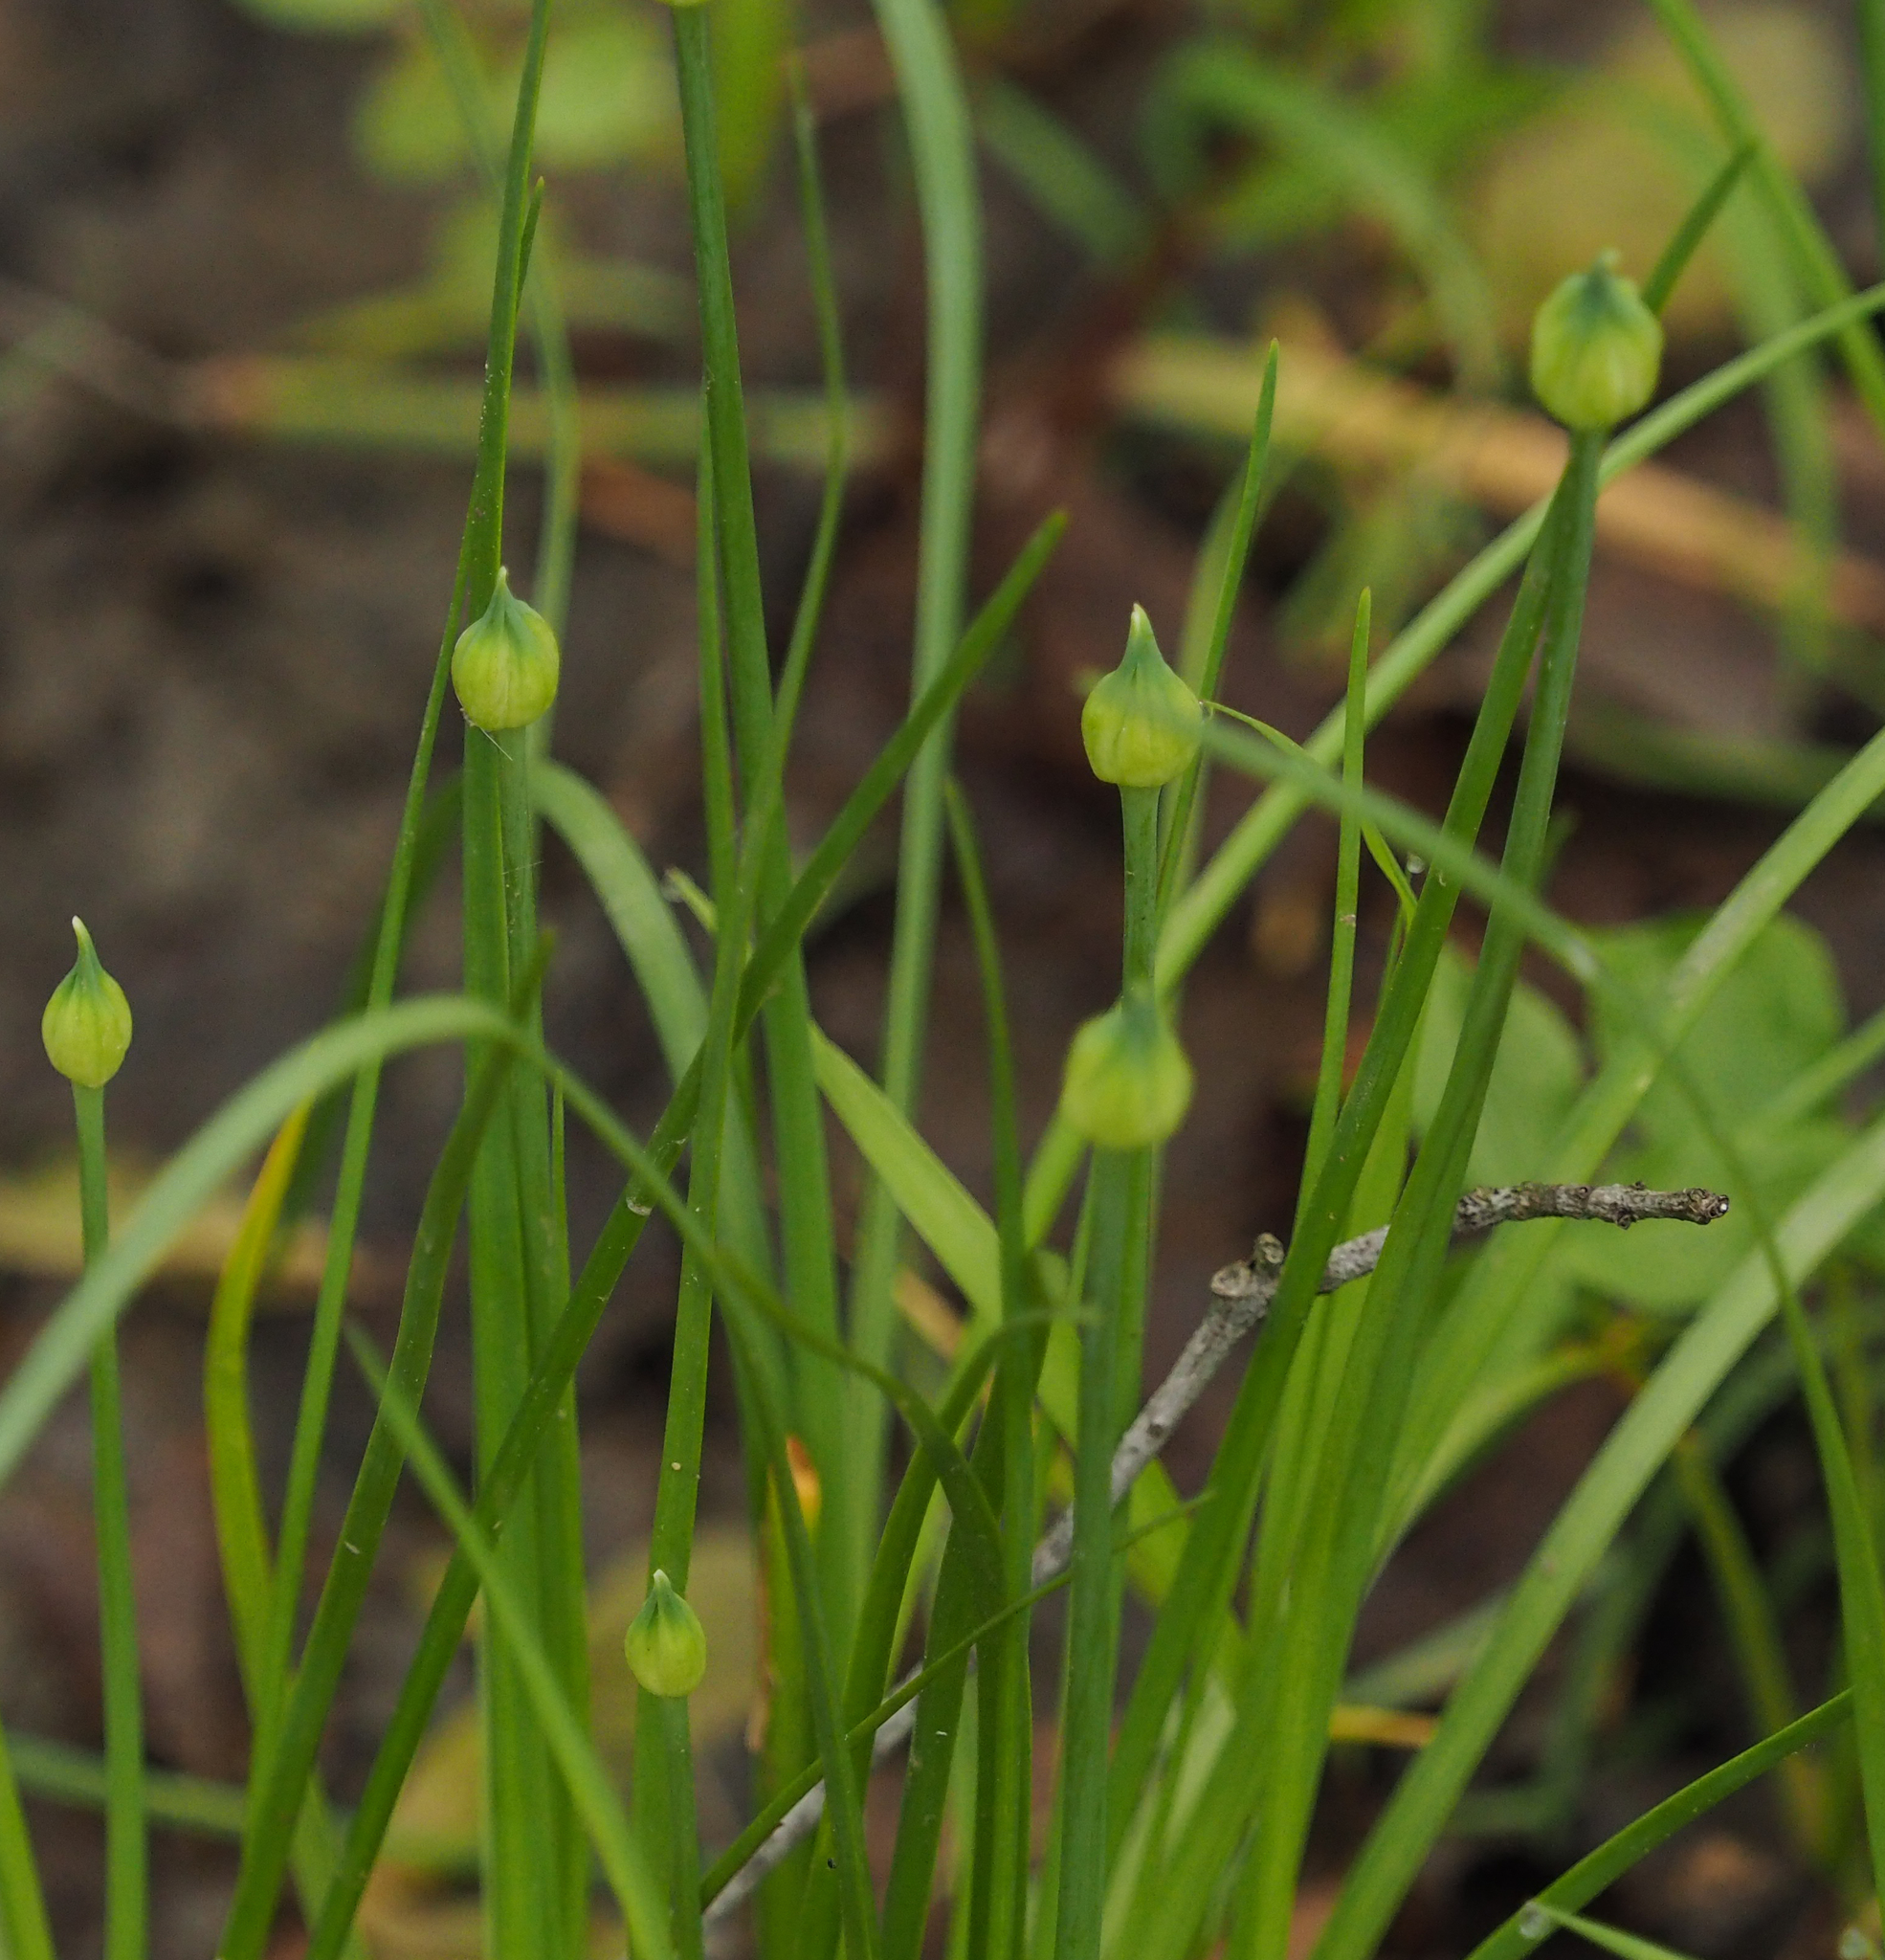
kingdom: Plantae
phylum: Tracheophyta
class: Liliopsida
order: Asparagales
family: Amaryllidaceae
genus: Allium
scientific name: Allium canadense
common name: Meadow garlic
